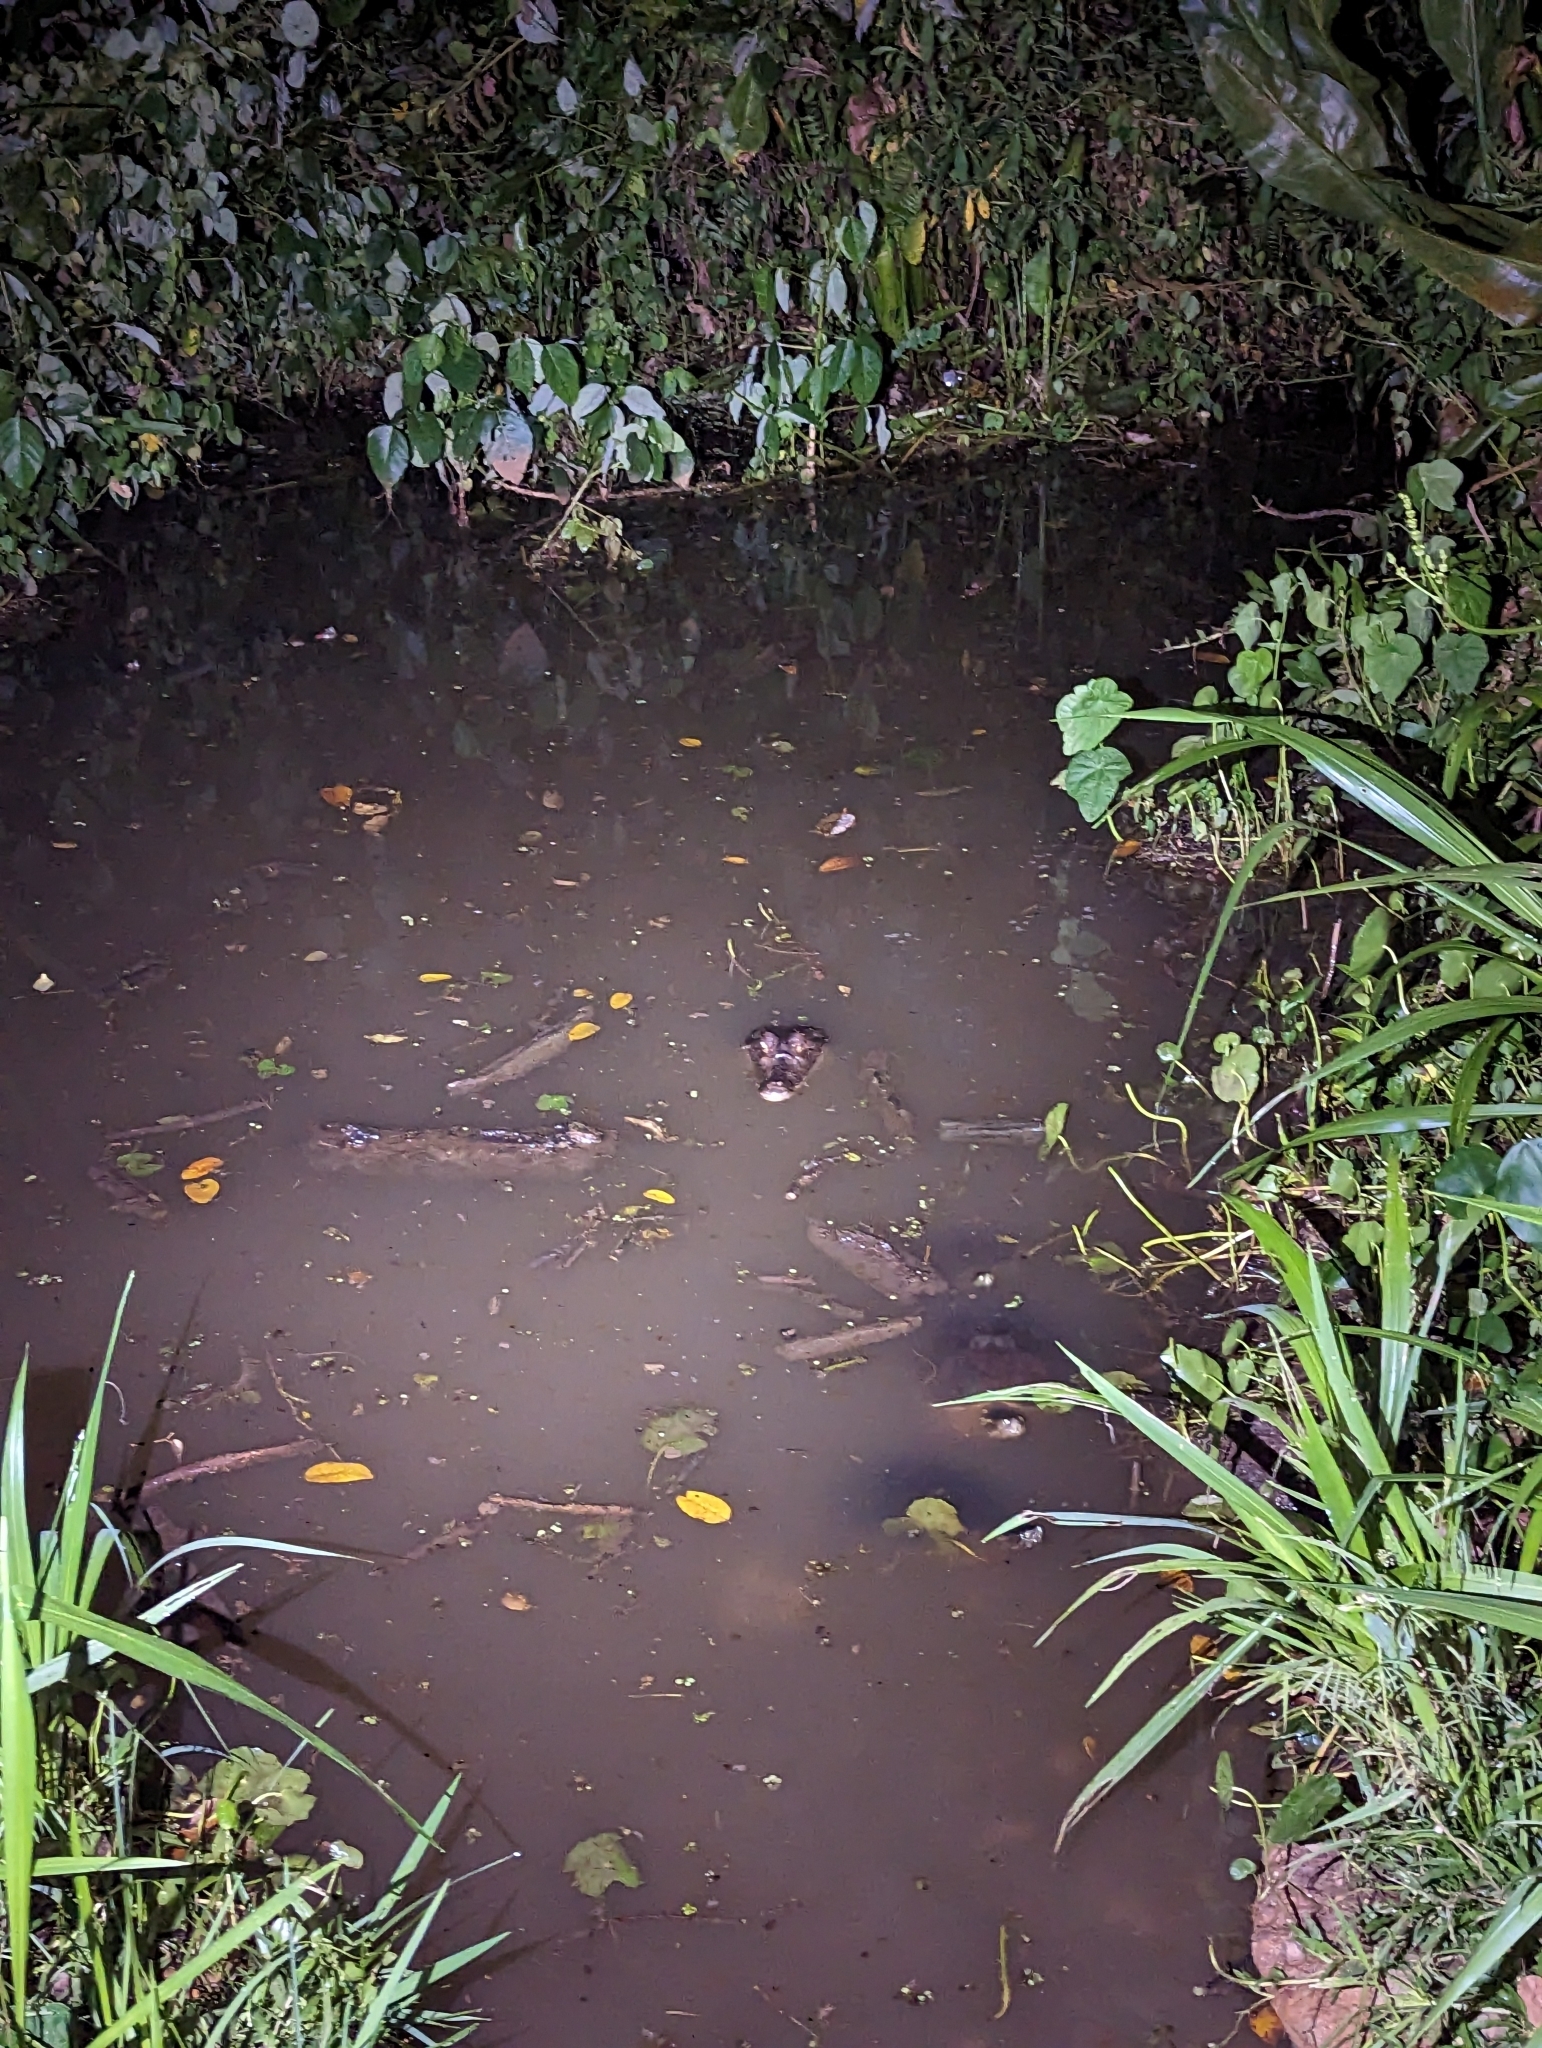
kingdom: Animalia
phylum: Chordata
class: Crocodylia
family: Alligatoridae
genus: Caiman
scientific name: Caiman crocodilus
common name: Common caiman
